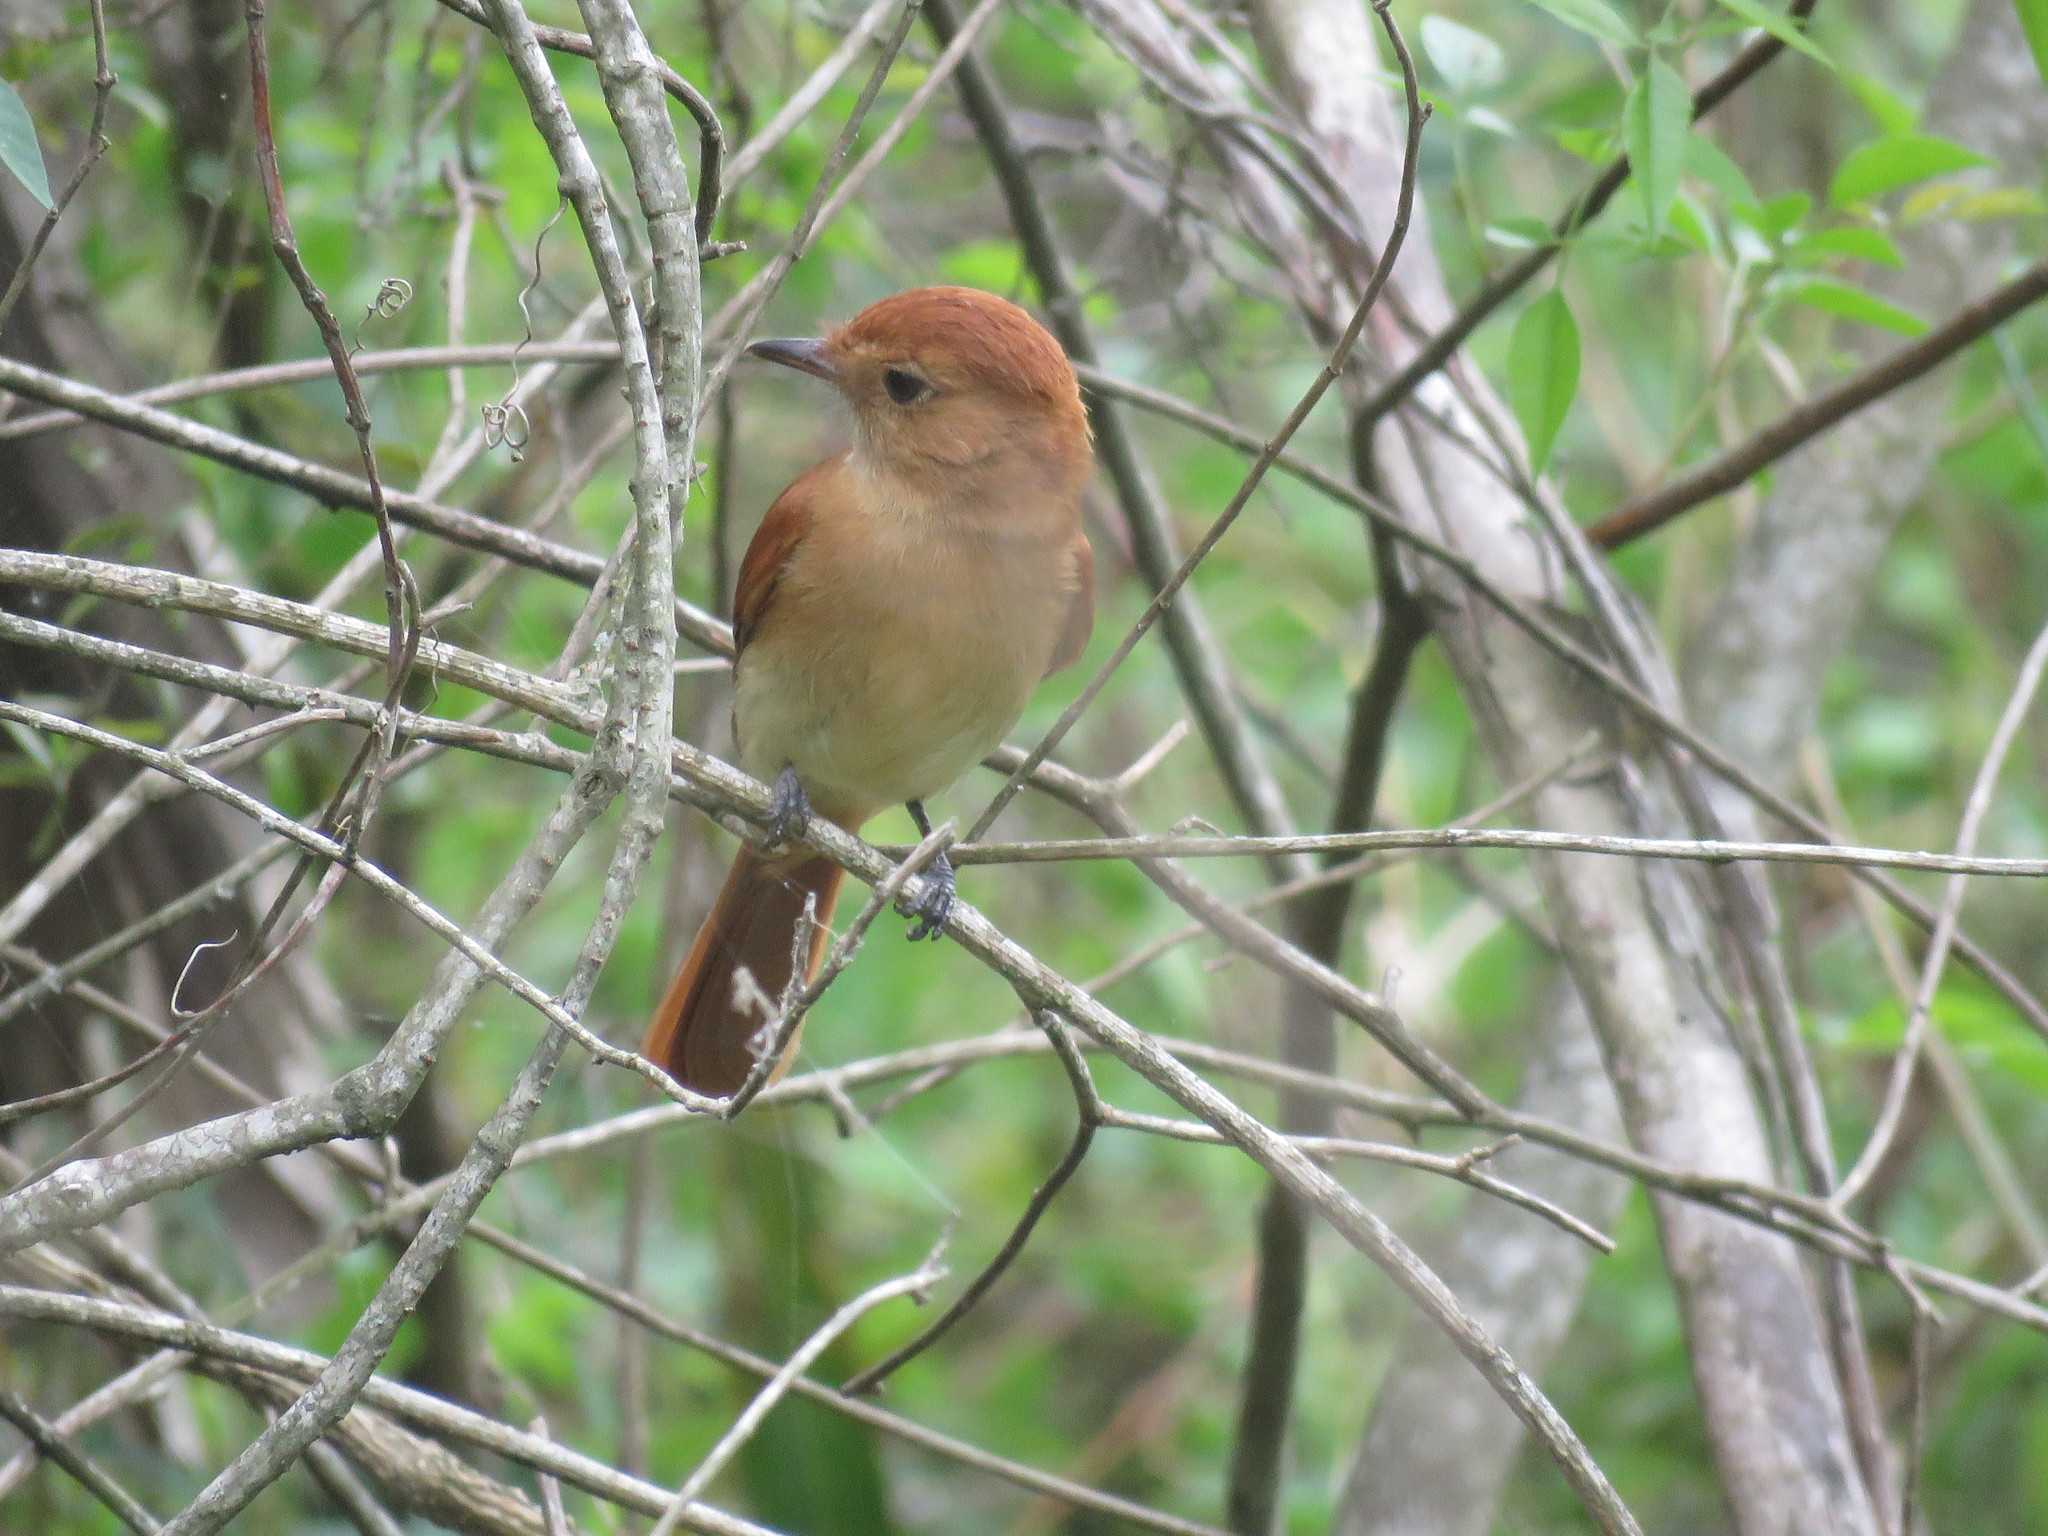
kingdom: Animalia
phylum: Chordata
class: Aves
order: Passeriformes
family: Tyrannidae
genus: Casiornis
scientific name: Casiornis rufus
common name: Rufous casiornis
